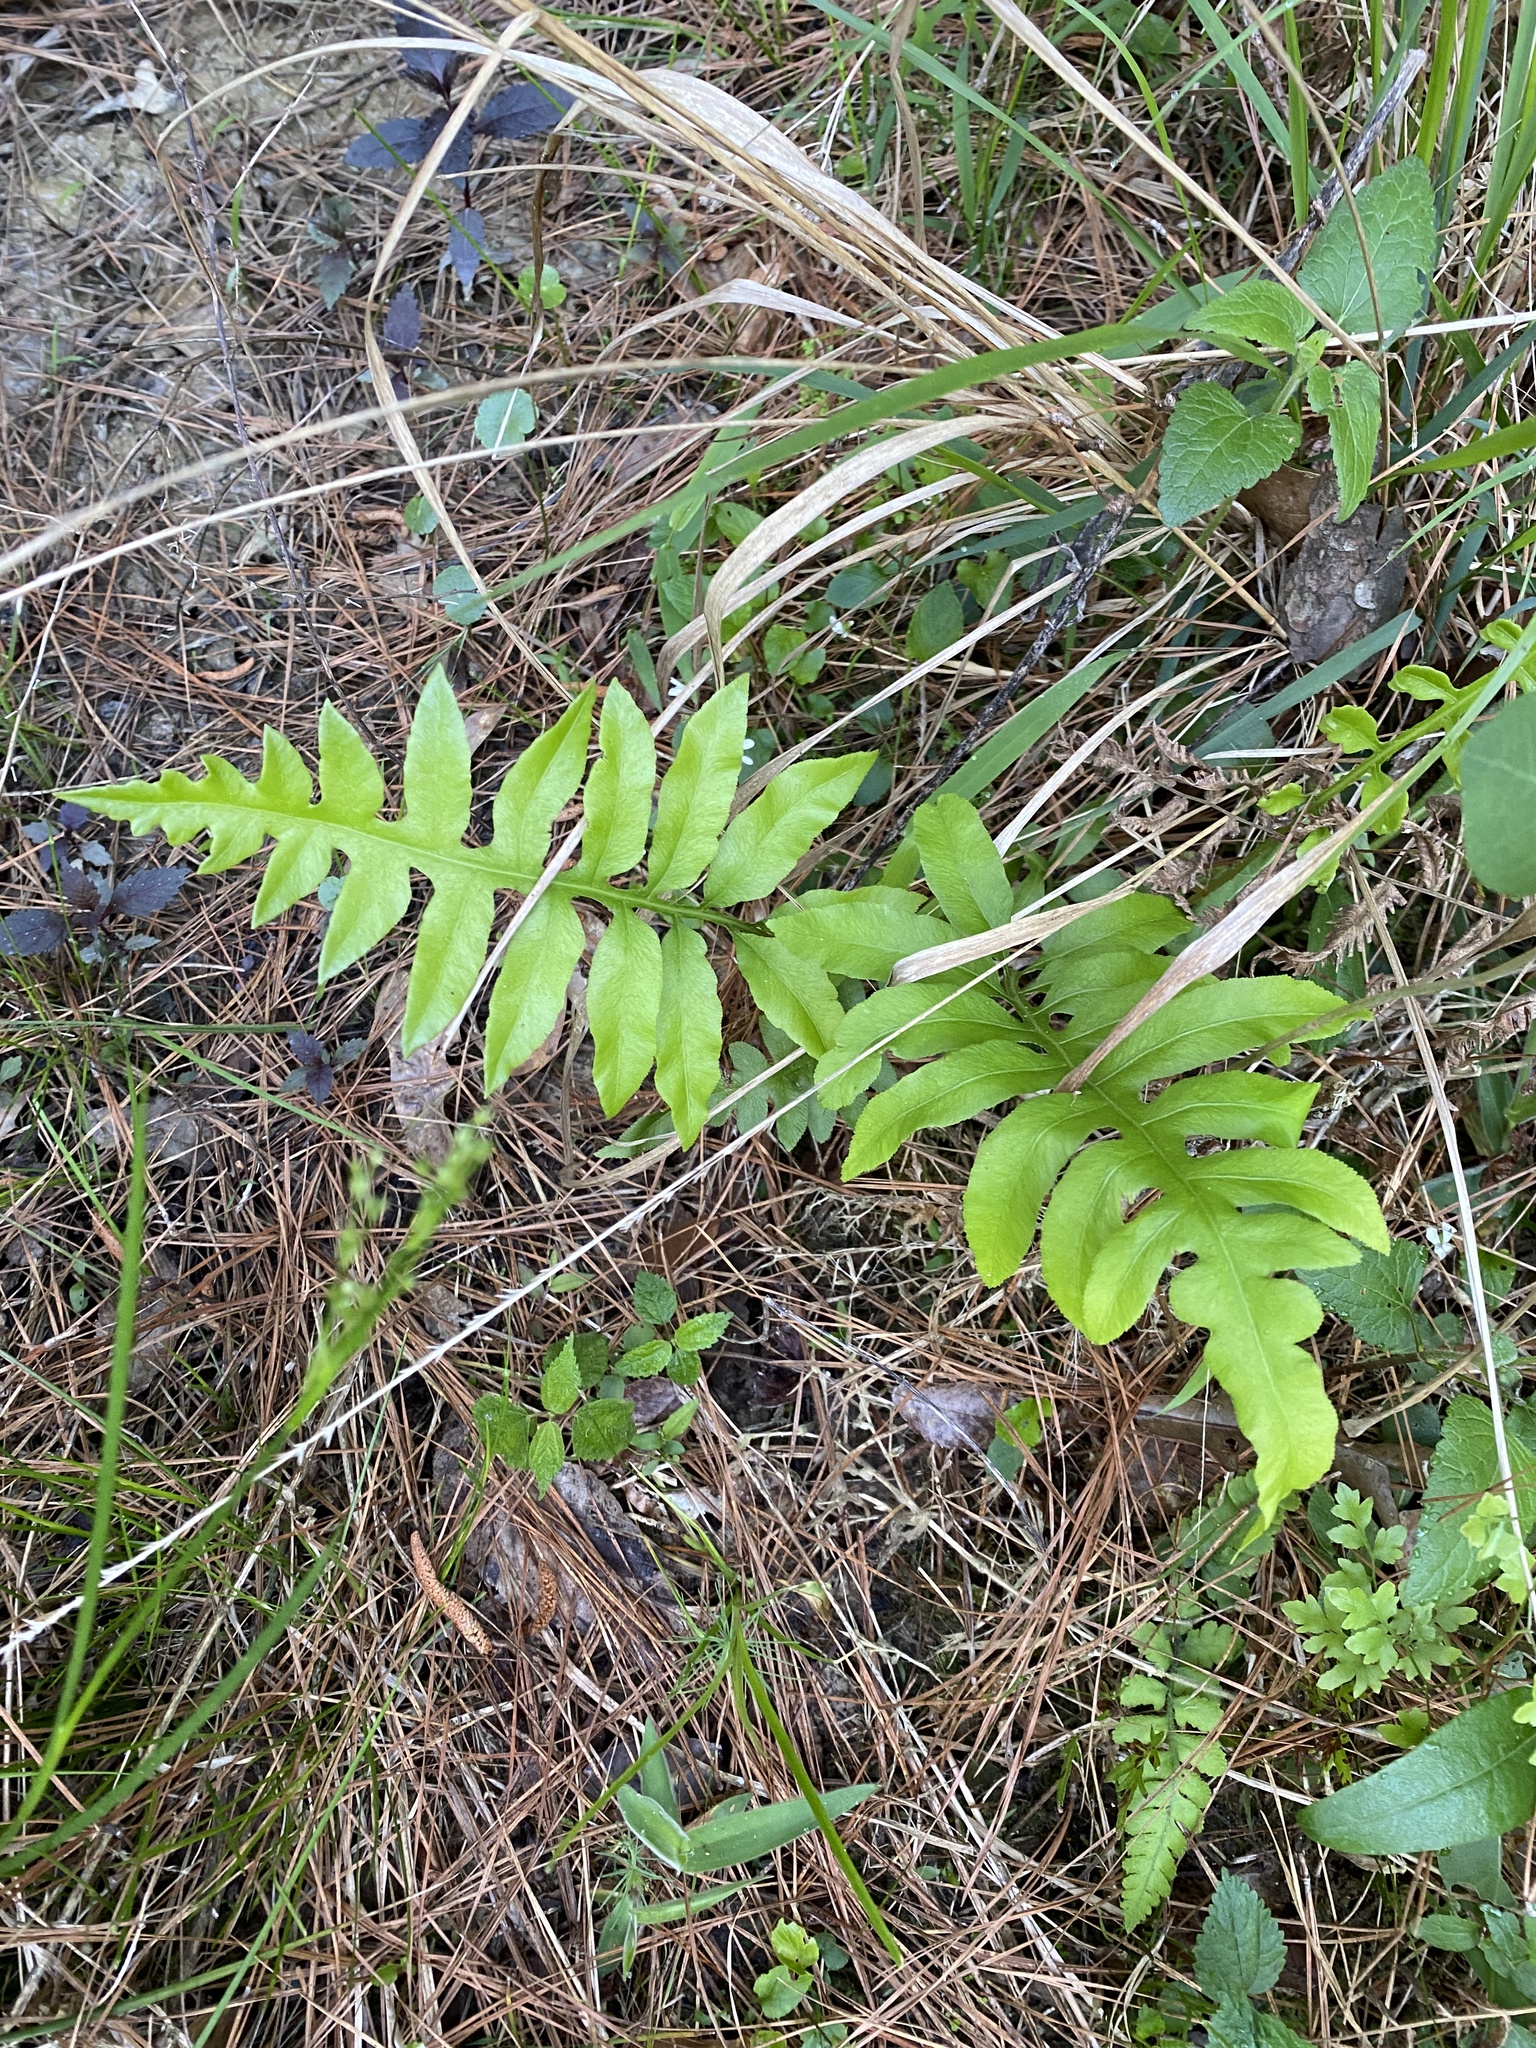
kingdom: Plantae
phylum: Tracheophyta
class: Polypodiopsida
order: Polypodiales
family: Blechnaceae
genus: Lorinseria
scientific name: Lorinseria areolata
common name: Dwarf chain fern
